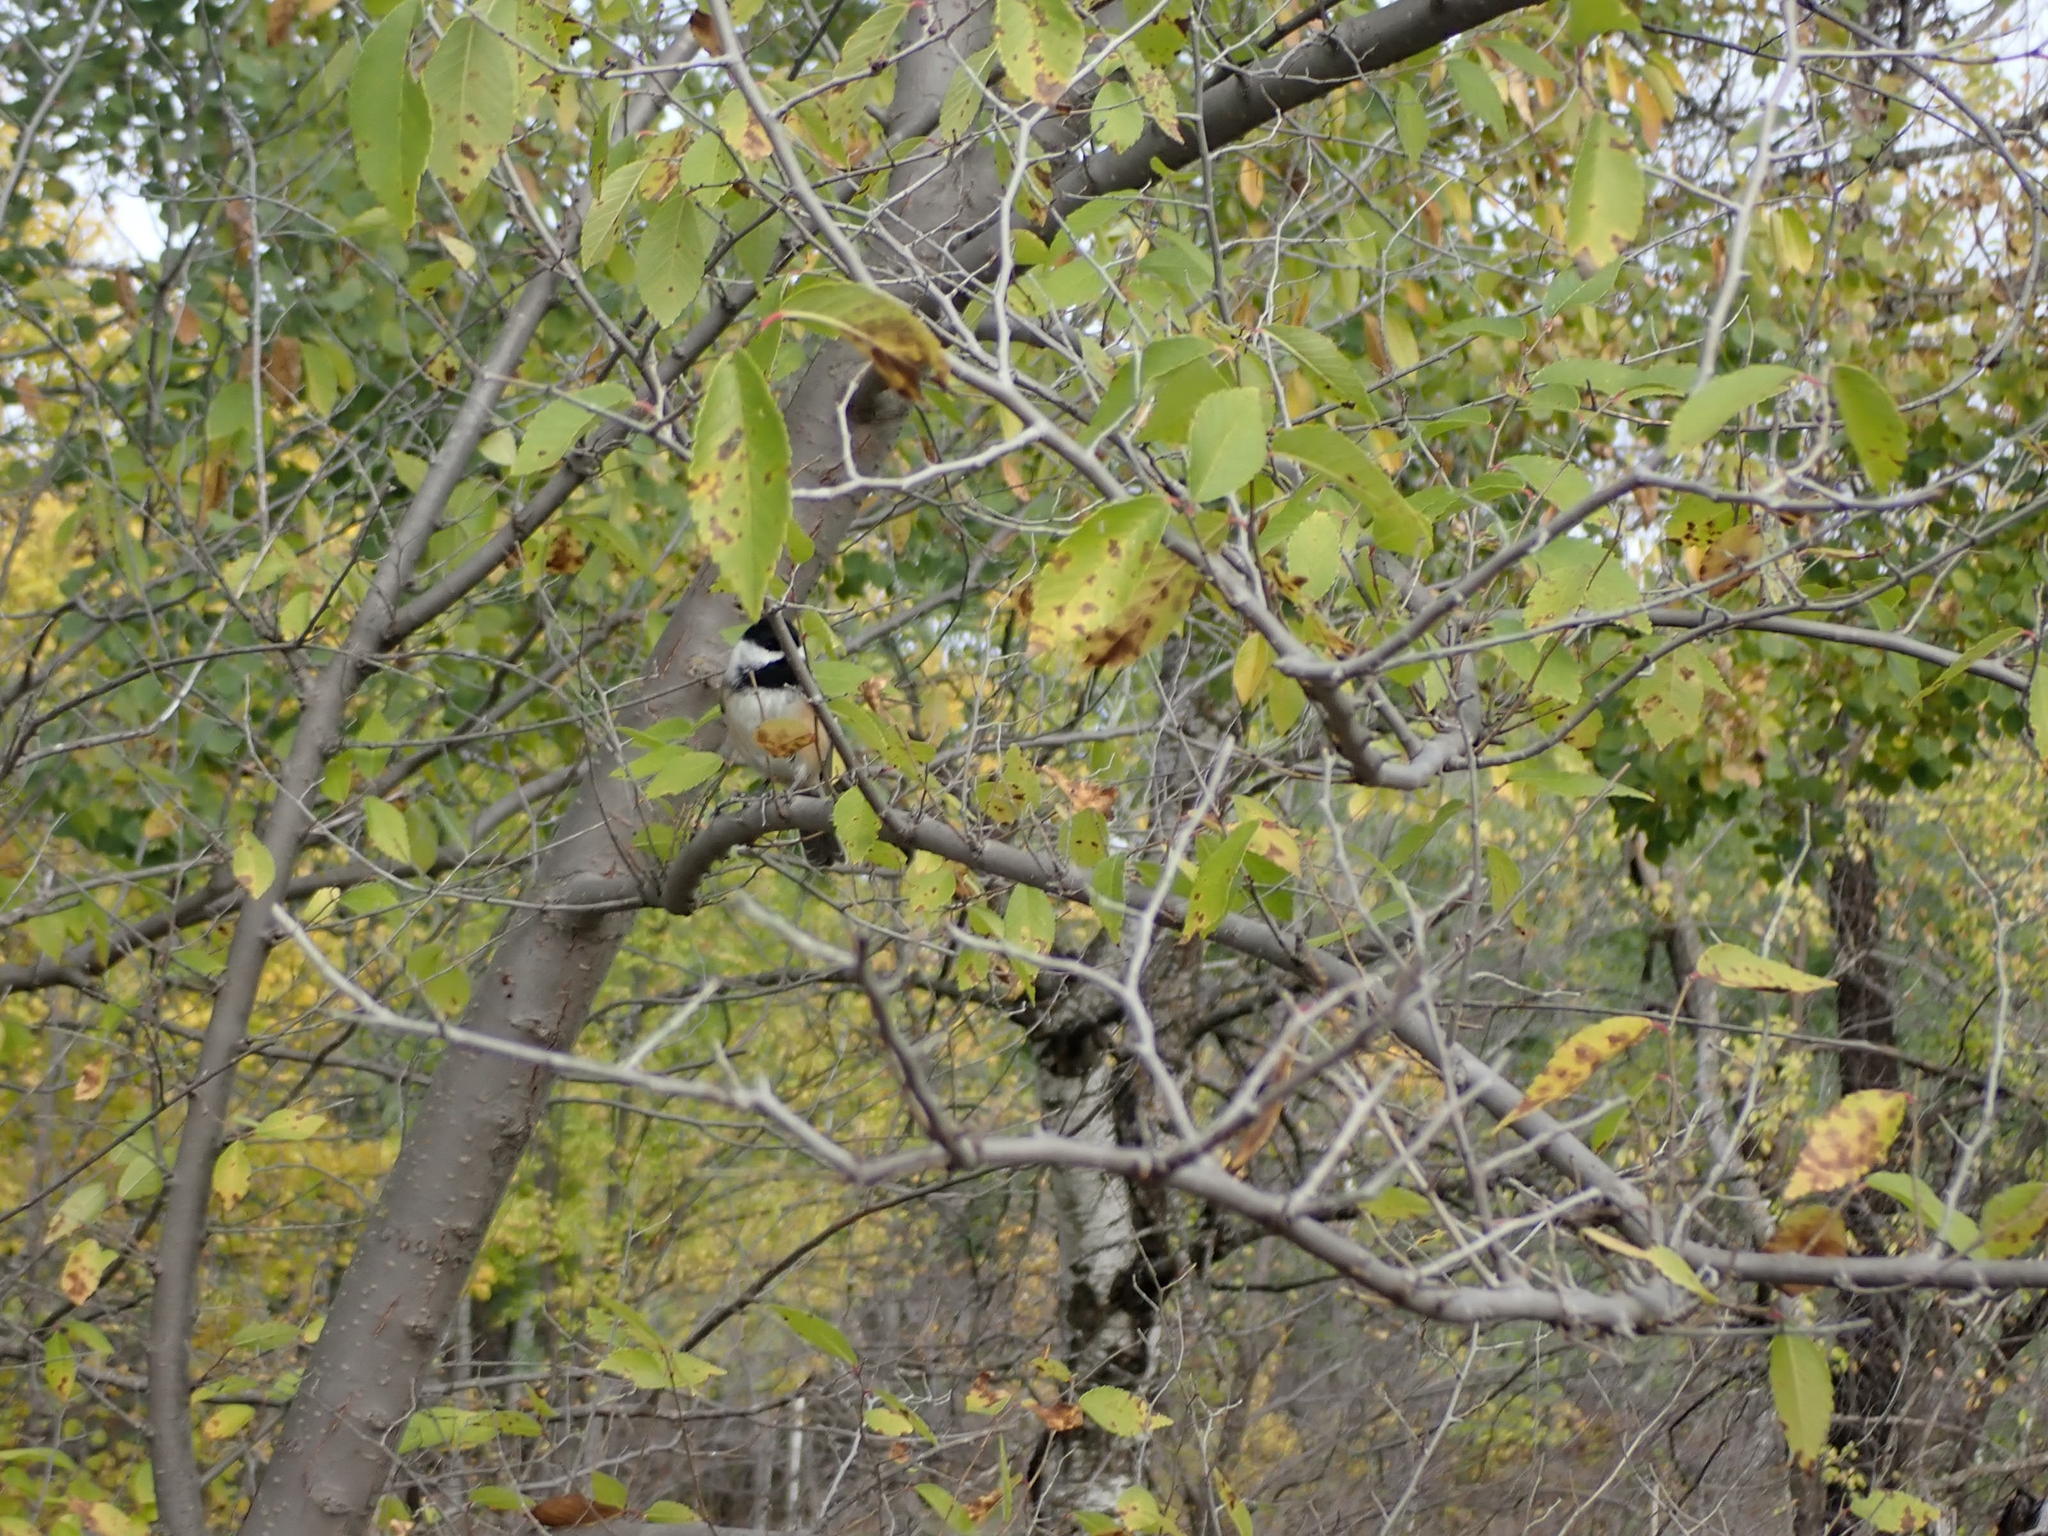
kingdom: Animalia
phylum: Chordata
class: Aves
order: Passeriformes
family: Paridae
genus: Poecile
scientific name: Poecile atricapillus
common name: Black-capped chickadee
